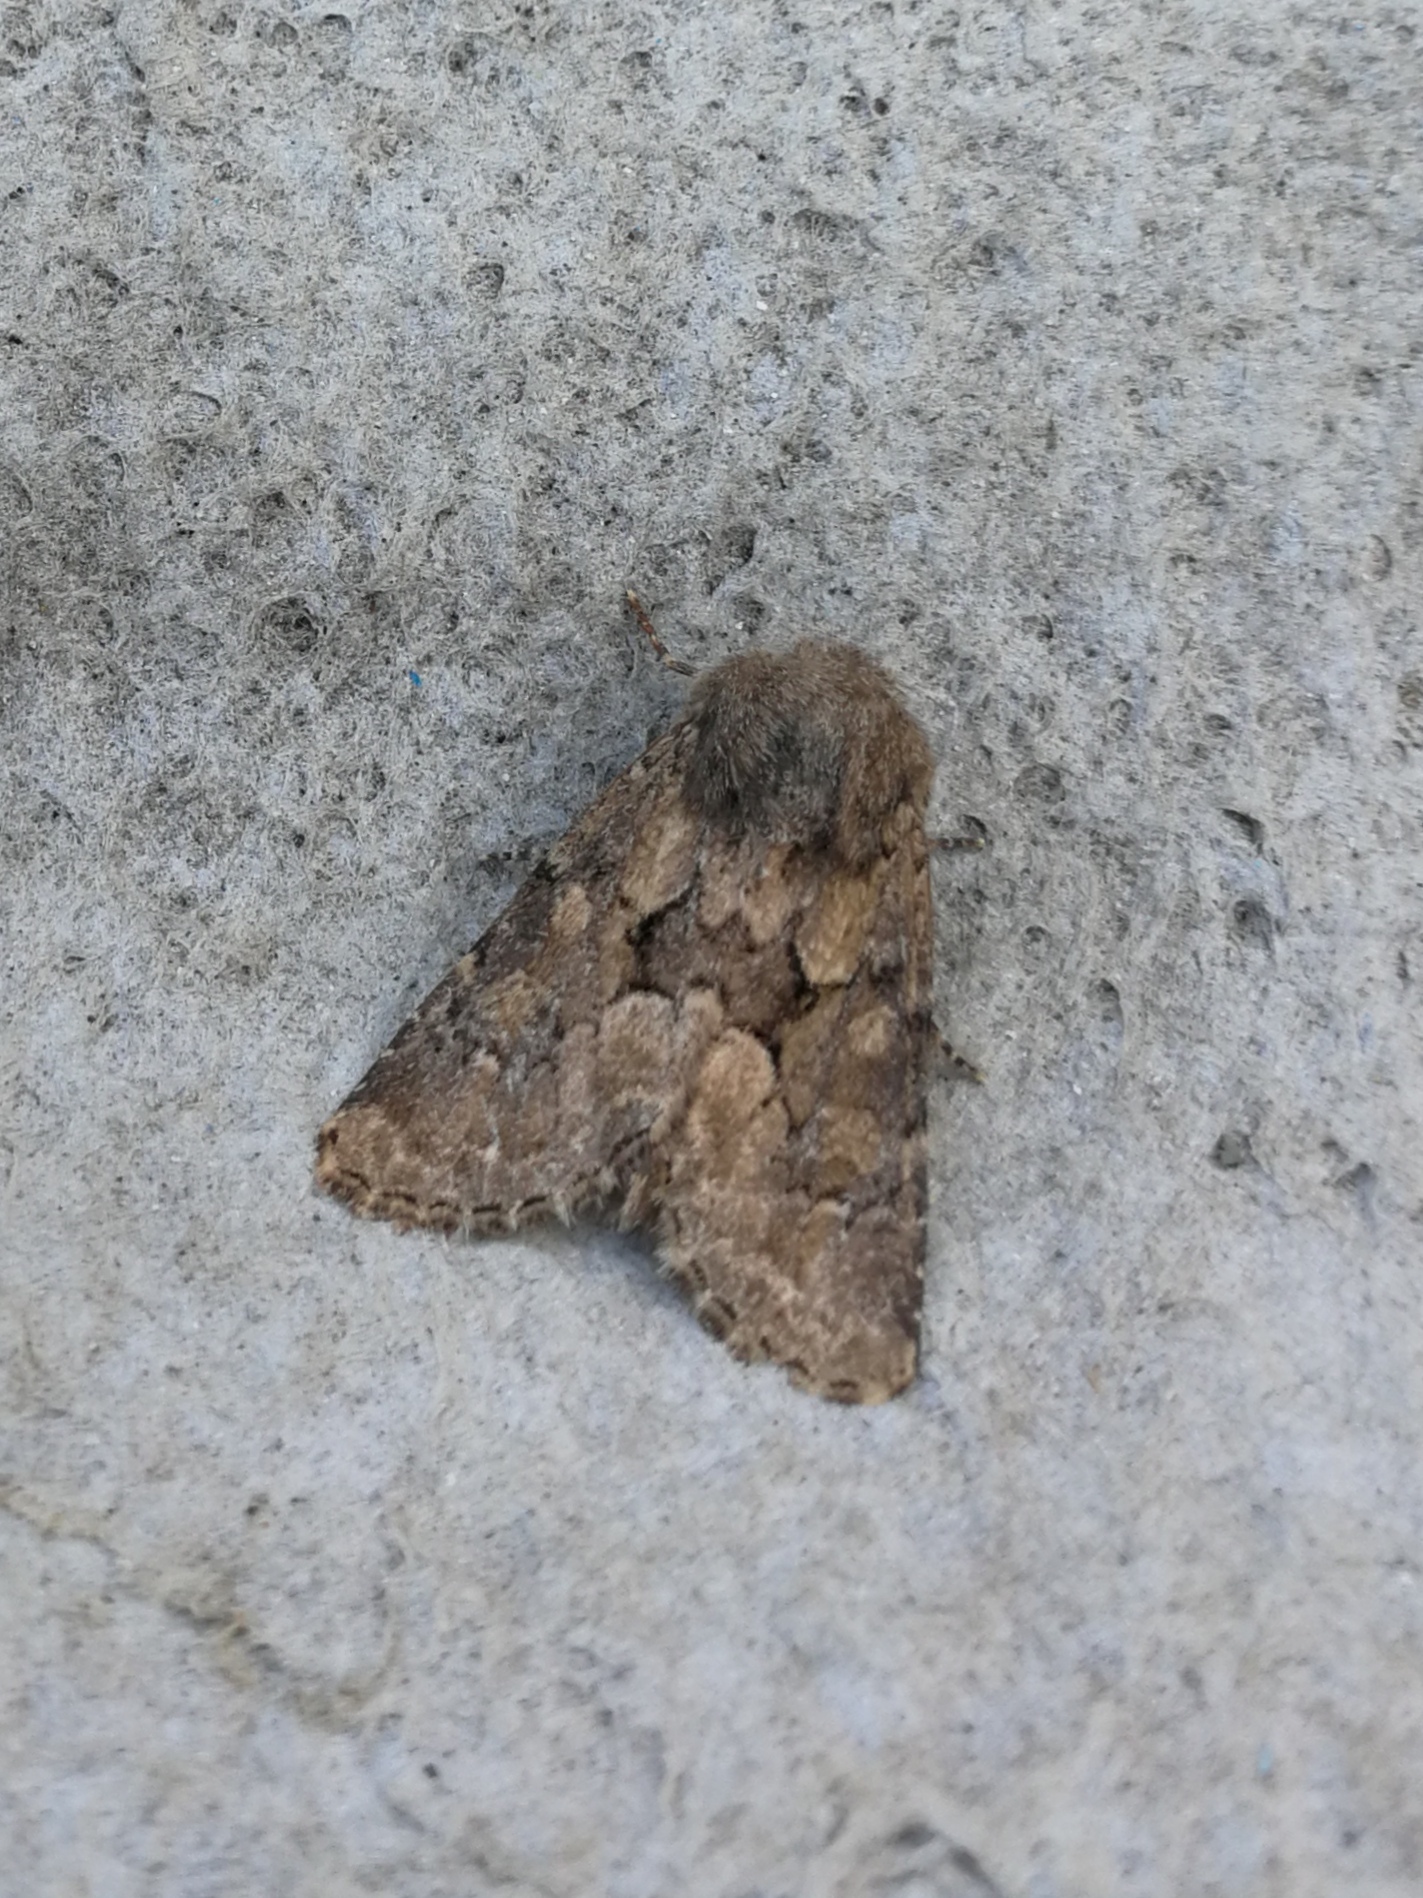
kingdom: Animalia
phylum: Arthropoda
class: Insecta
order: Lepidoptera
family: Noctuidae
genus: Luperina
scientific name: Luperina testacea
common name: Flounced rustic
